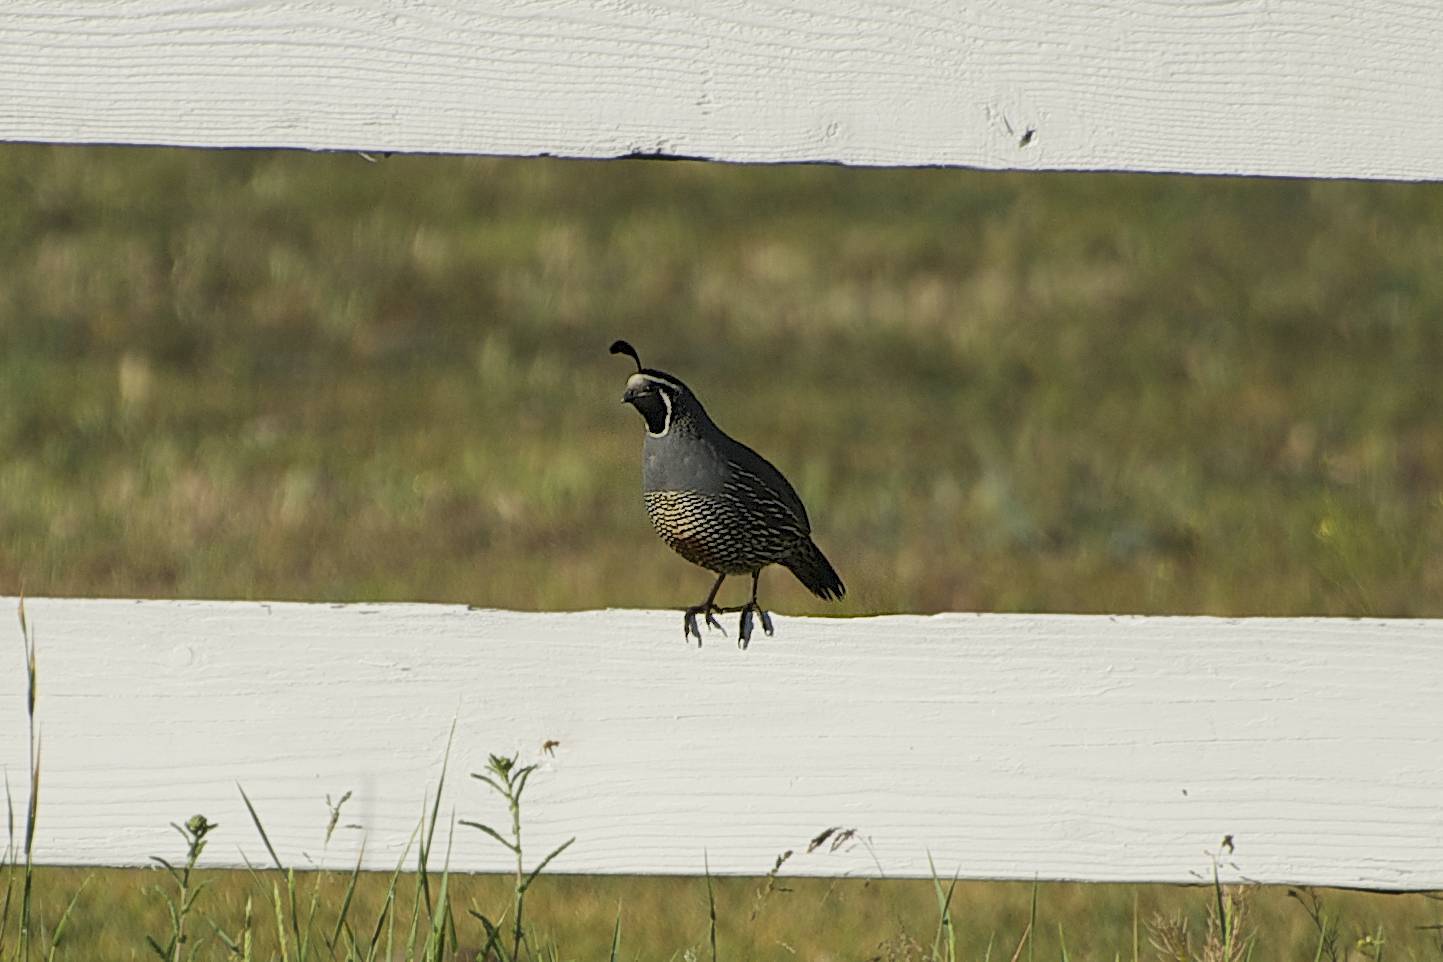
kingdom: Animalia
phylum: Chordata
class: Aves
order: Galliformes
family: Odontophoridae
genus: Callipepla
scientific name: Callipepla californica
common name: California quail
